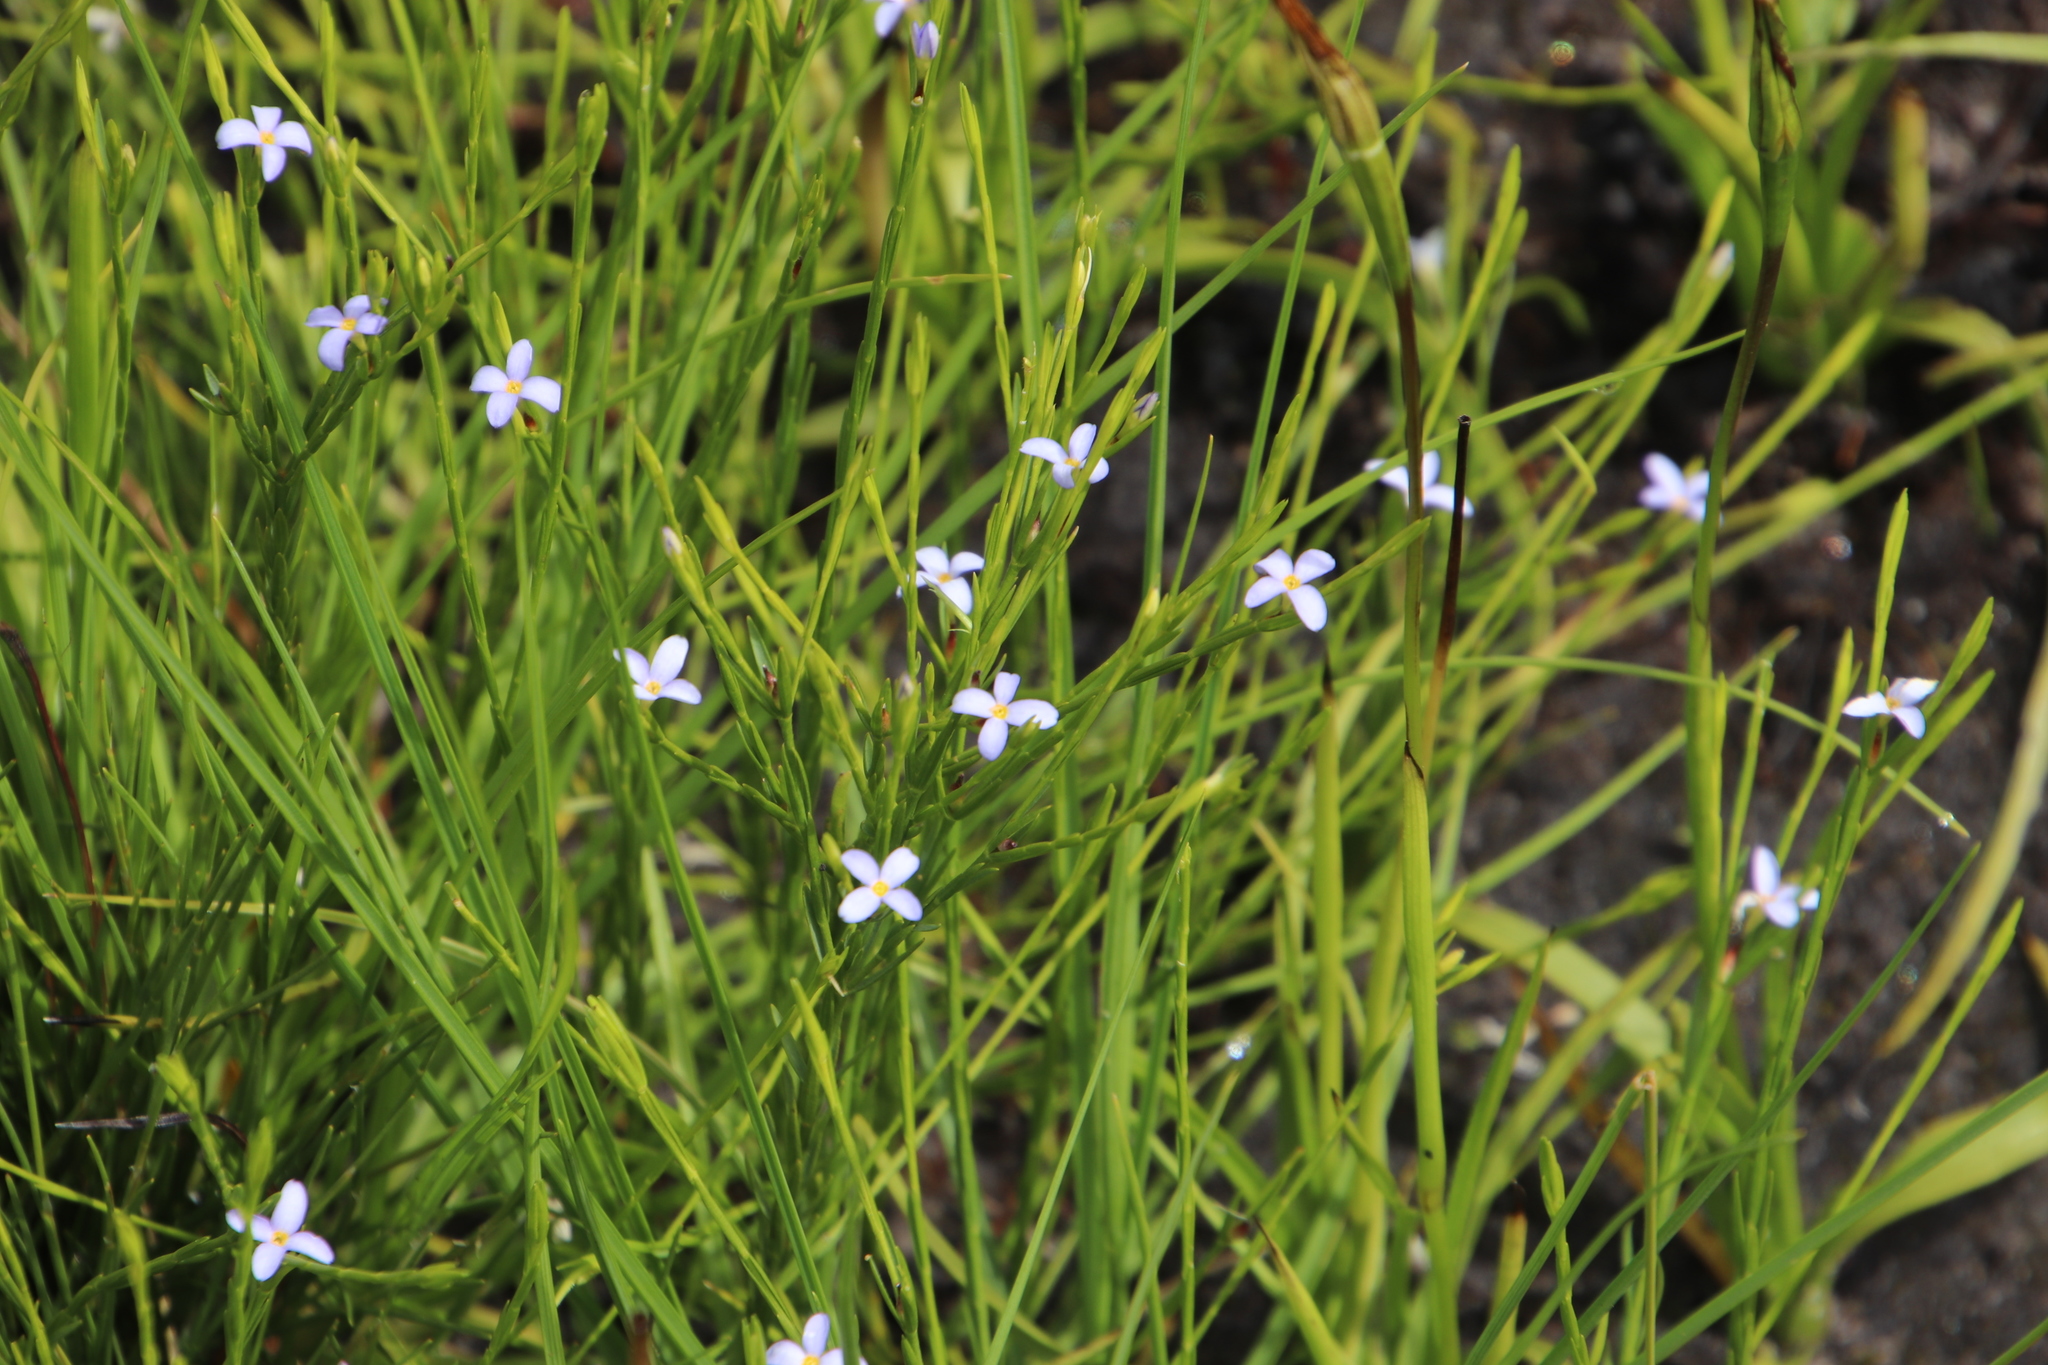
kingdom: Plantae
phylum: Tracheophyta
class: Magnoliopsida
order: Malvales
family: Thymelaeaceae
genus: Gnidia
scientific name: Gnidia linoides
